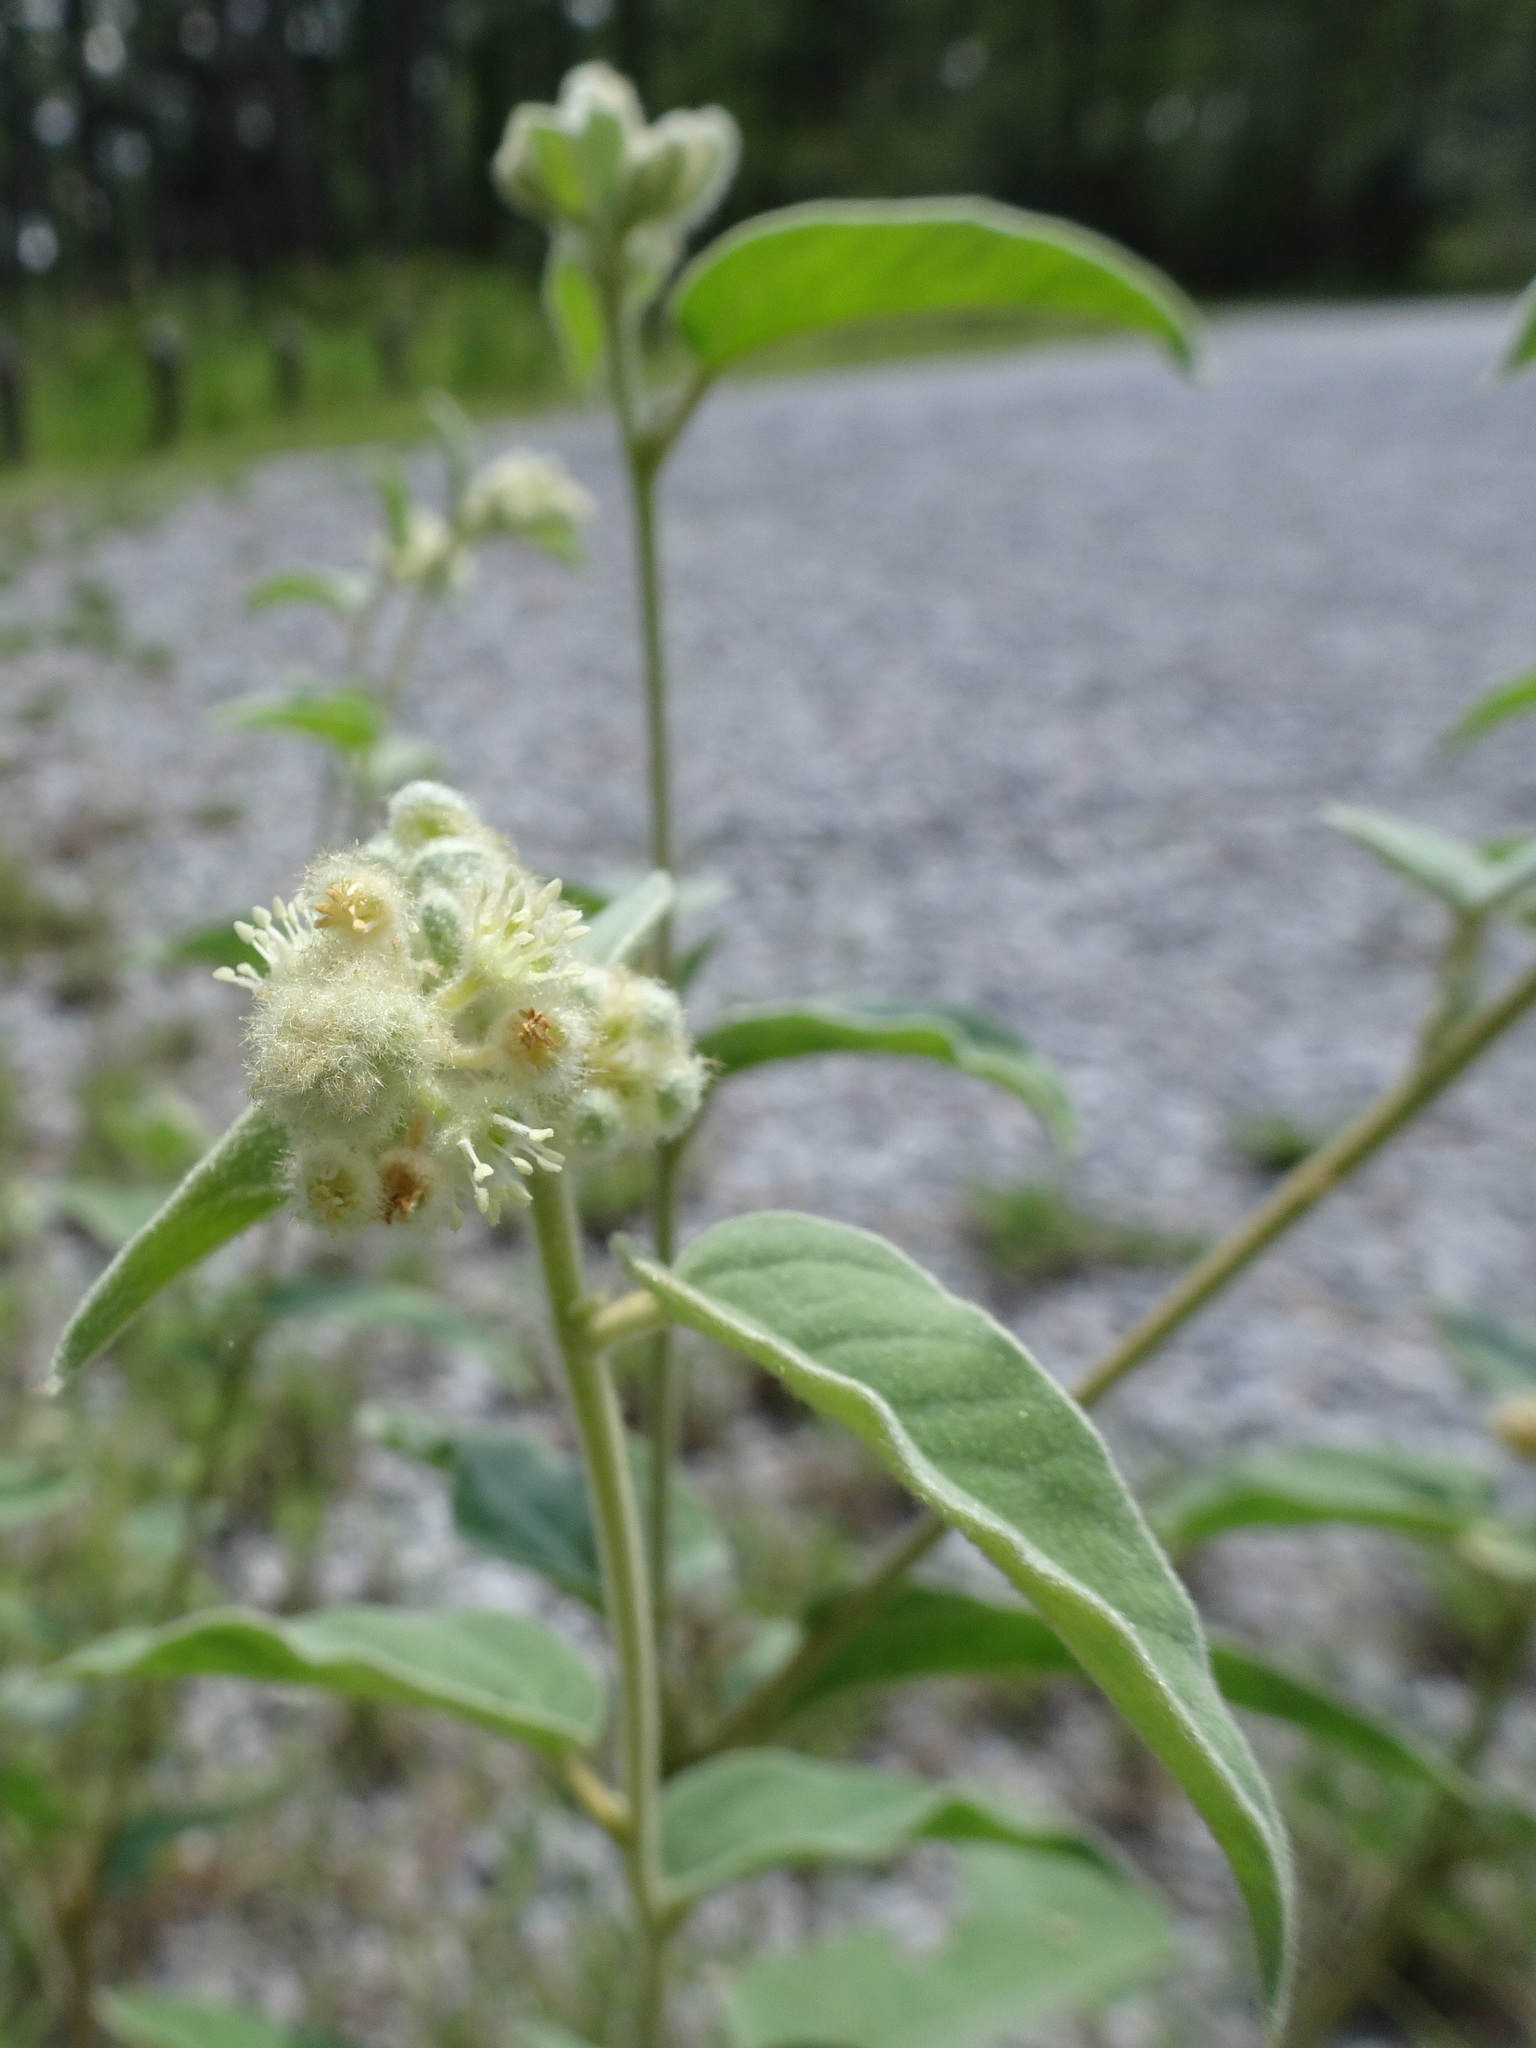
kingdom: Plantae
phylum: Tracheophyta
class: Magnoliopsida
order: Malpighiales
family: Euphorbiaceae
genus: Croton
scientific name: Croton lindheimeri
